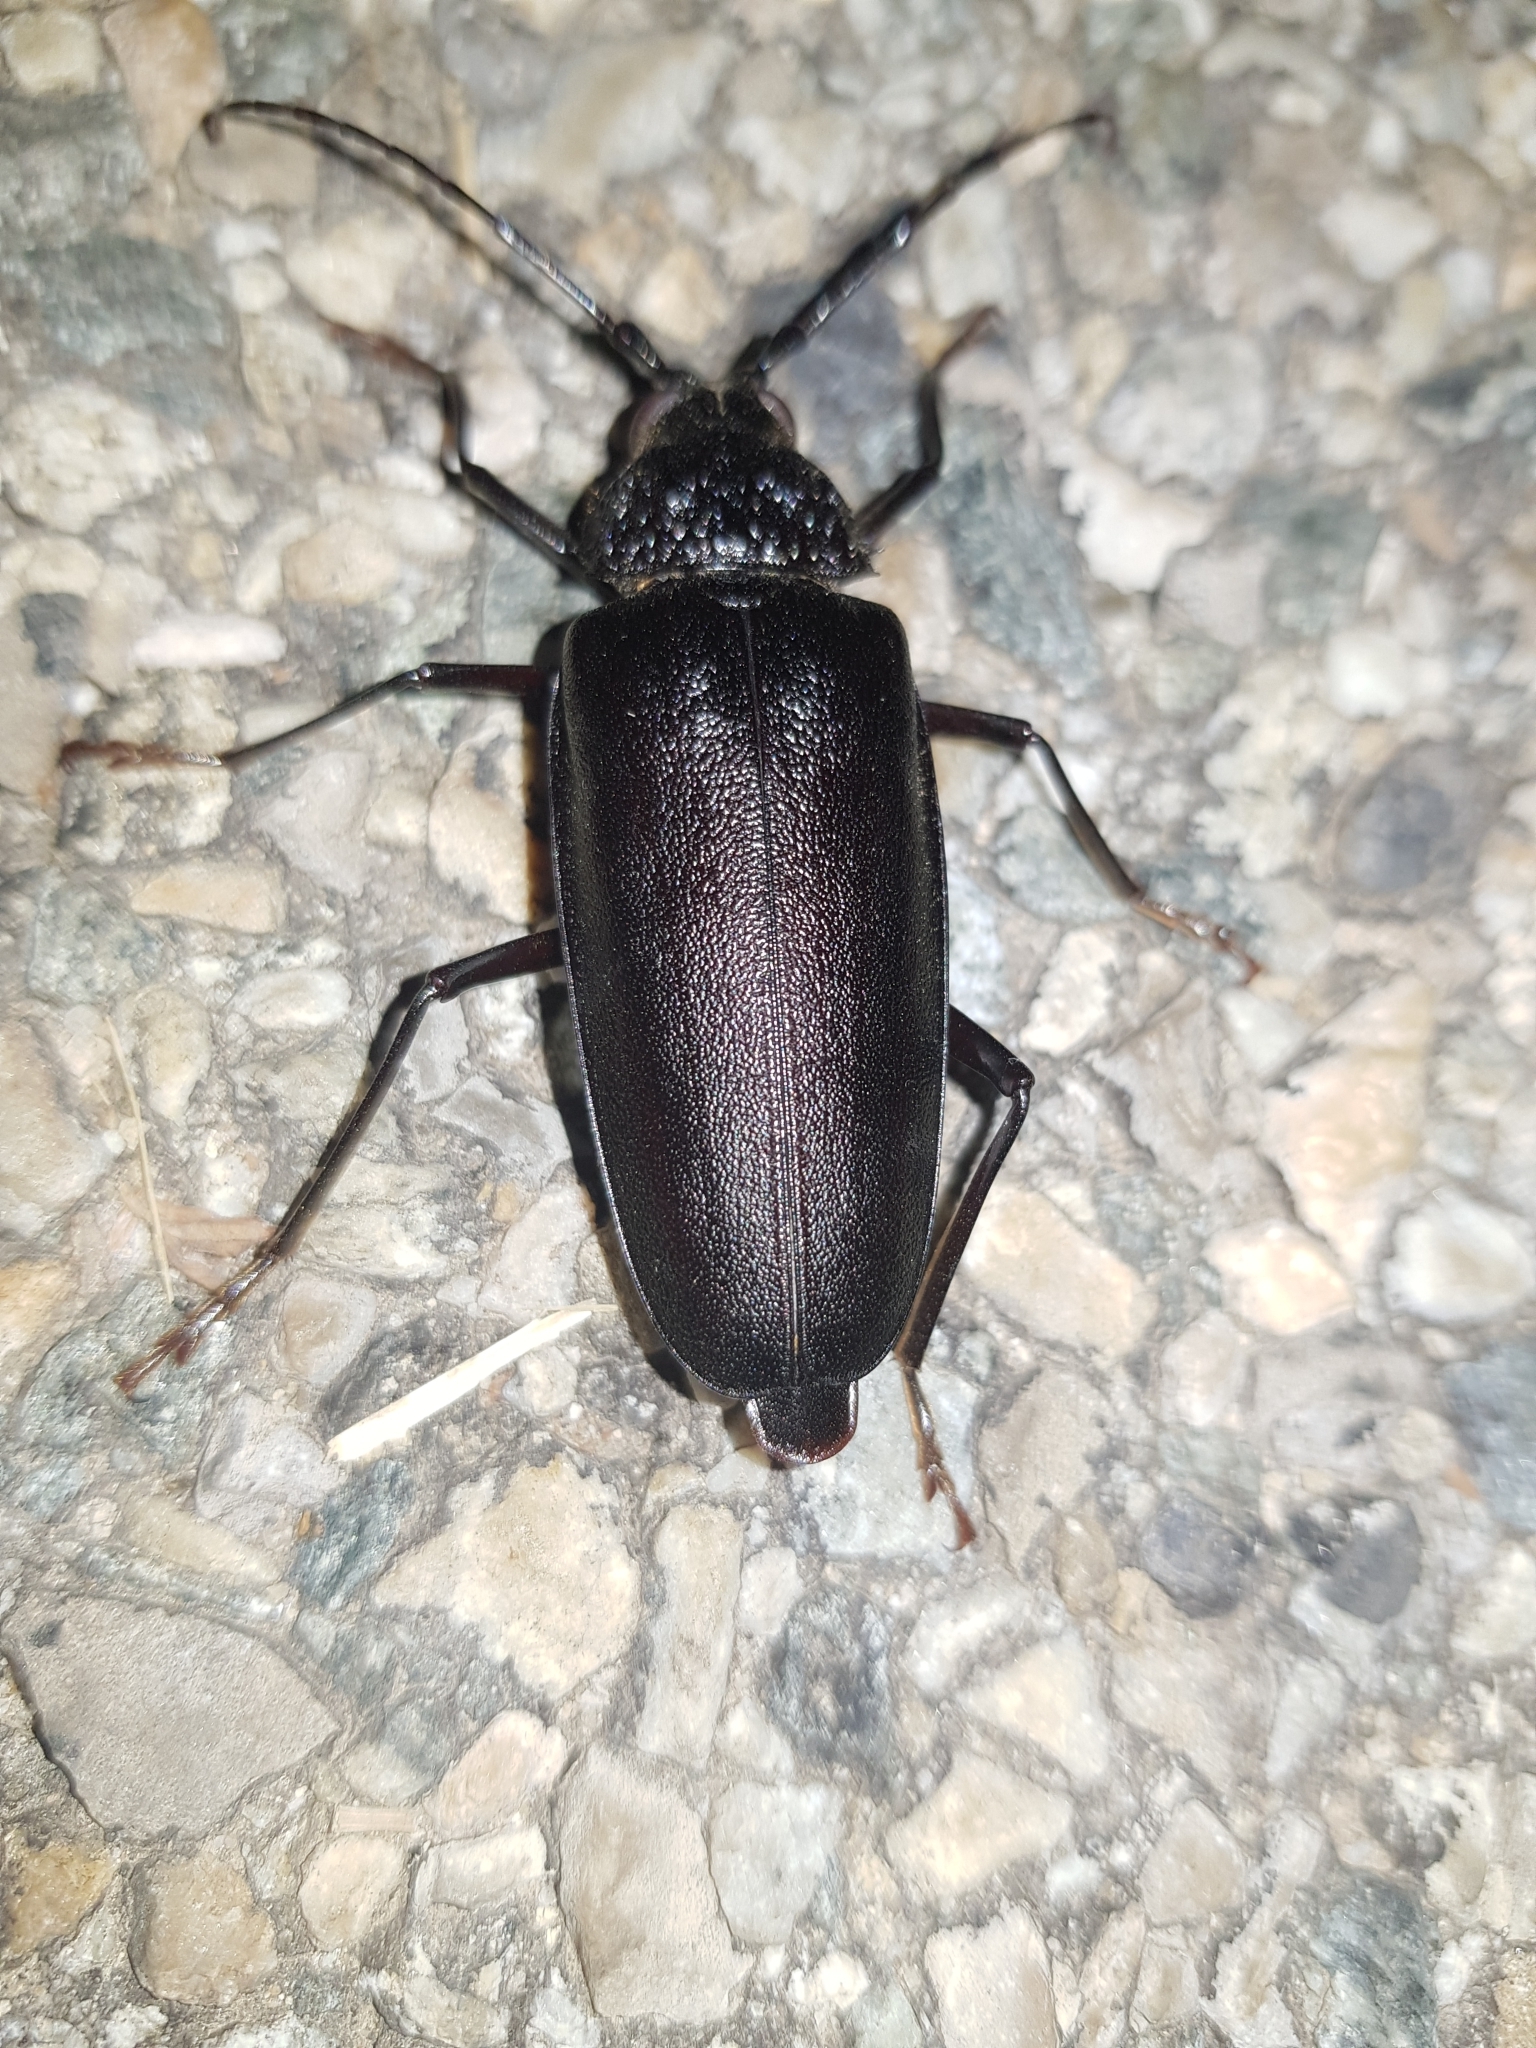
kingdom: Animalia
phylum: Arthropoda
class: Insecta
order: Coleoptera
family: Cerambycidae
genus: Ergates
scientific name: Ergates faber
